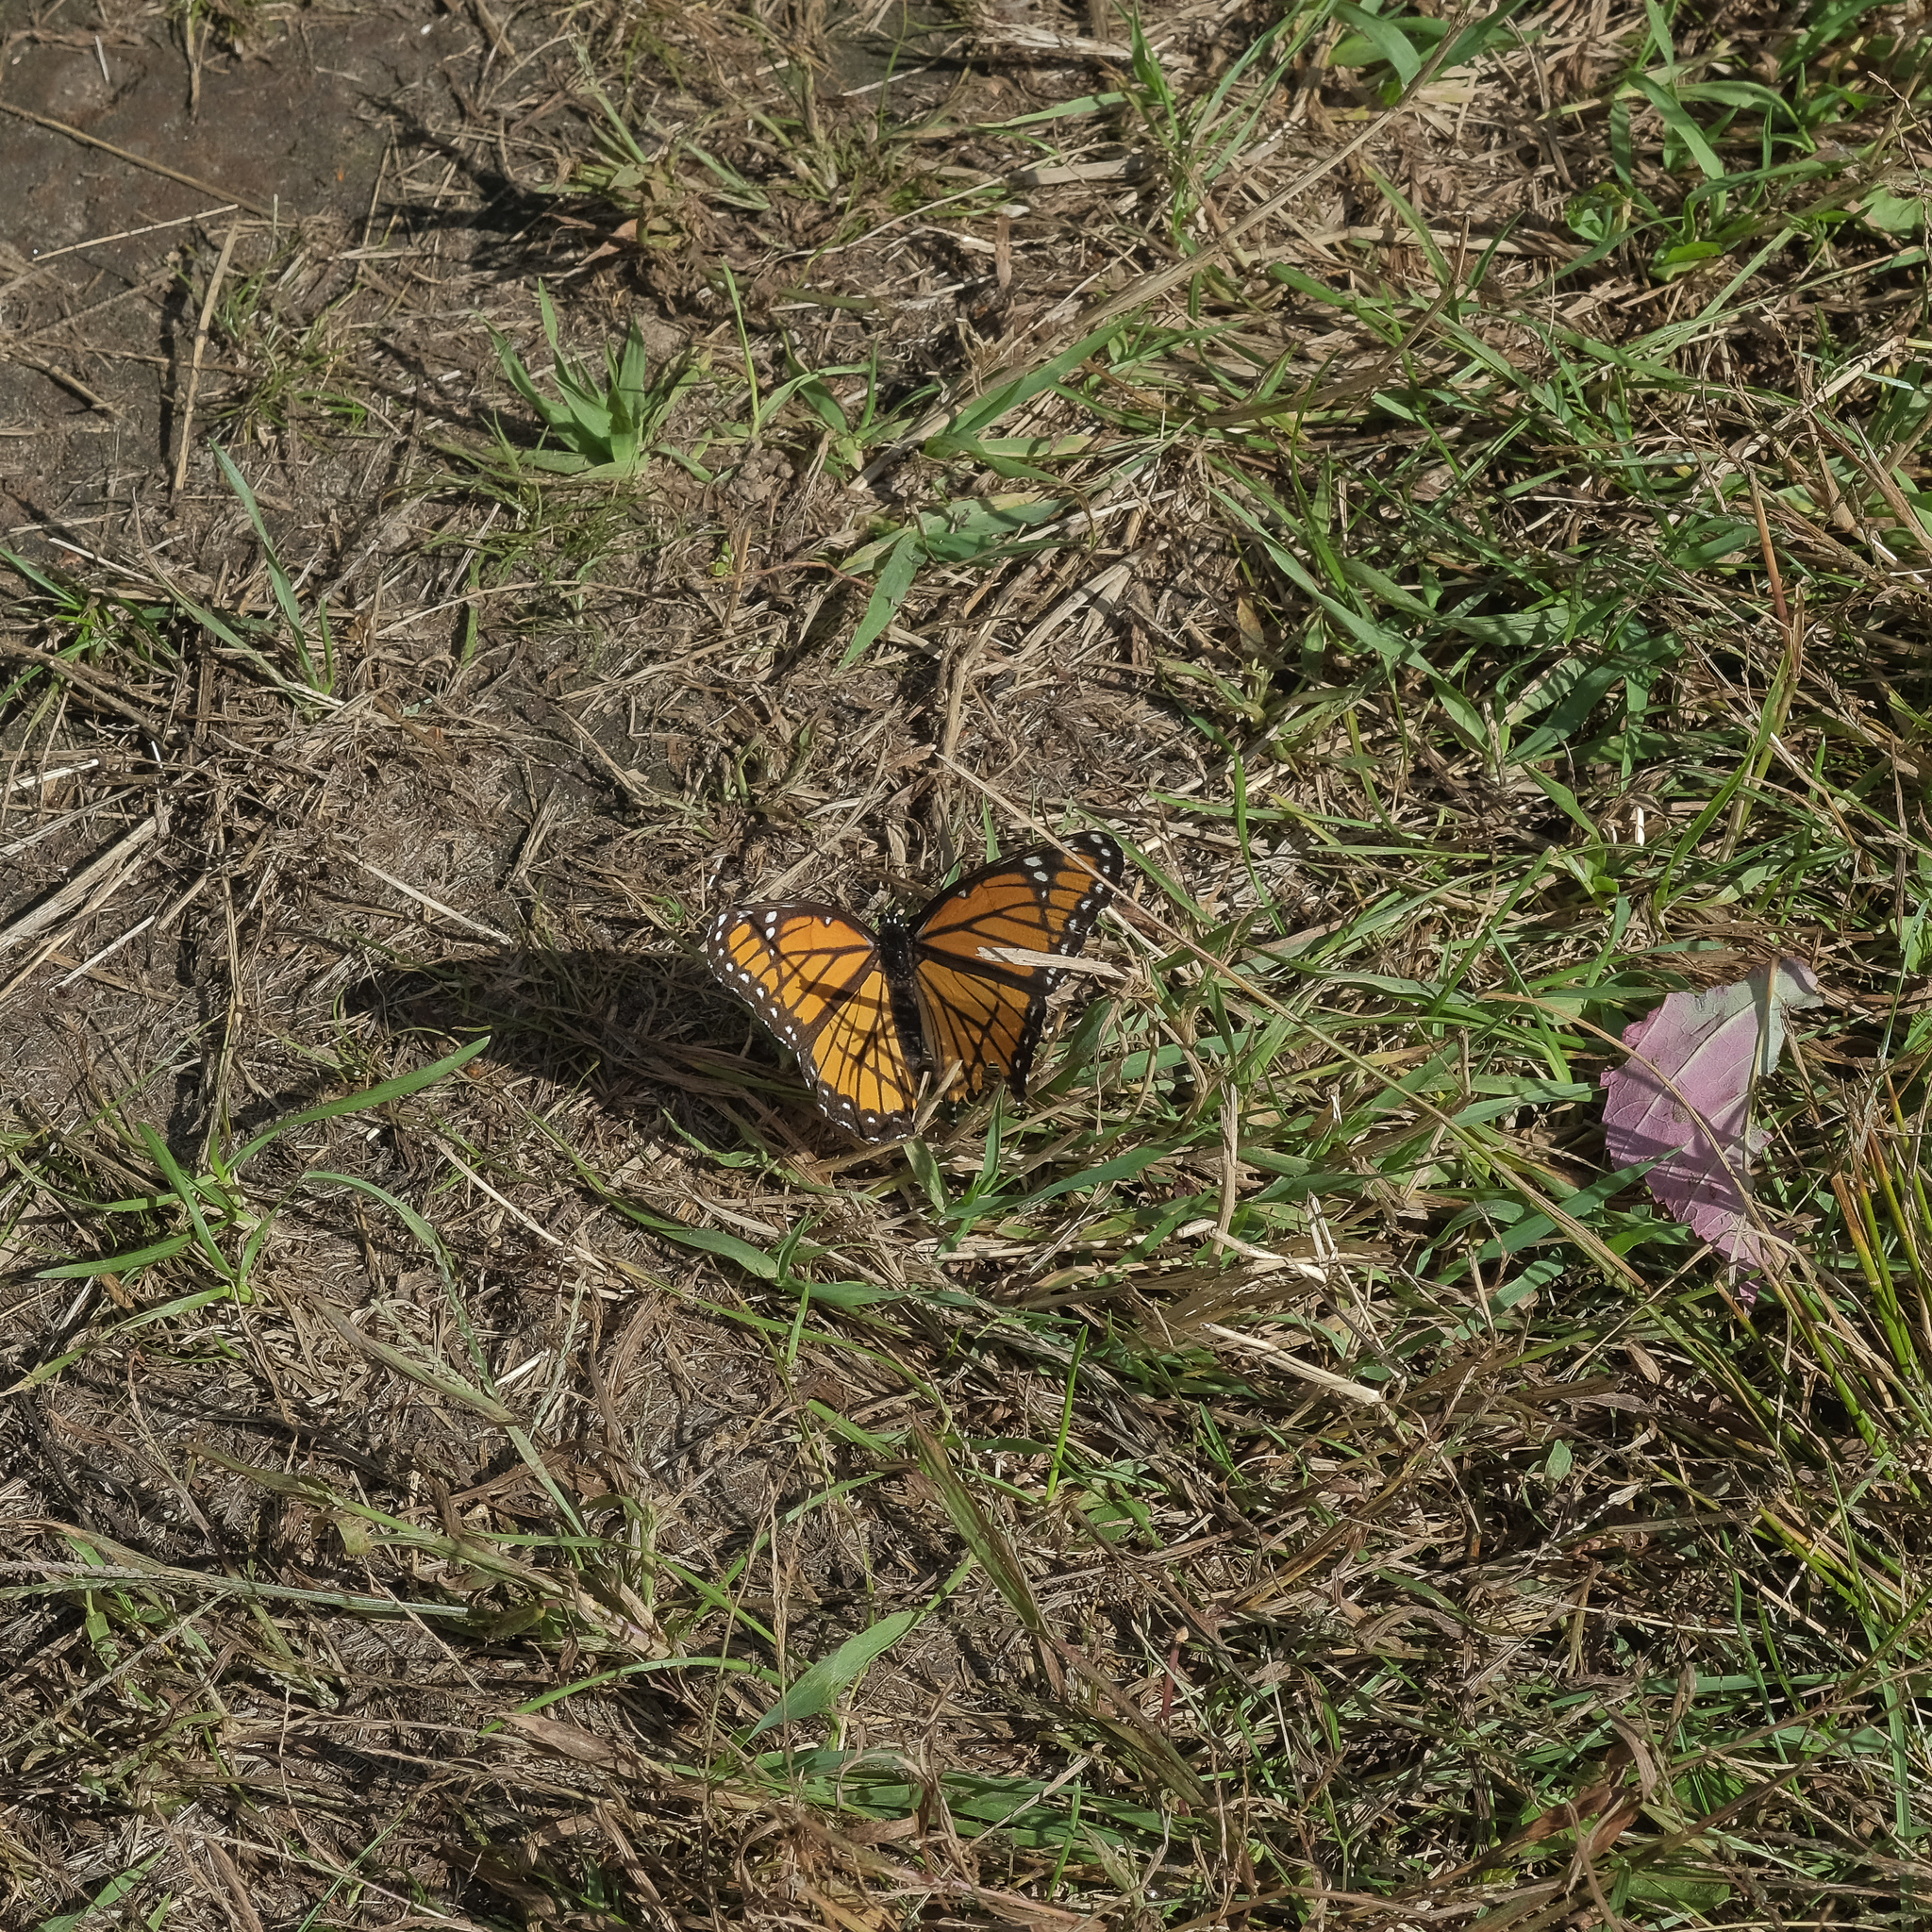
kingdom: Animalia
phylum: Arthropoda
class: Insecta
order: Lepidoptera
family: Nymphalidae
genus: Limenitis
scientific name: Limenitis archippus
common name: Viceroy
